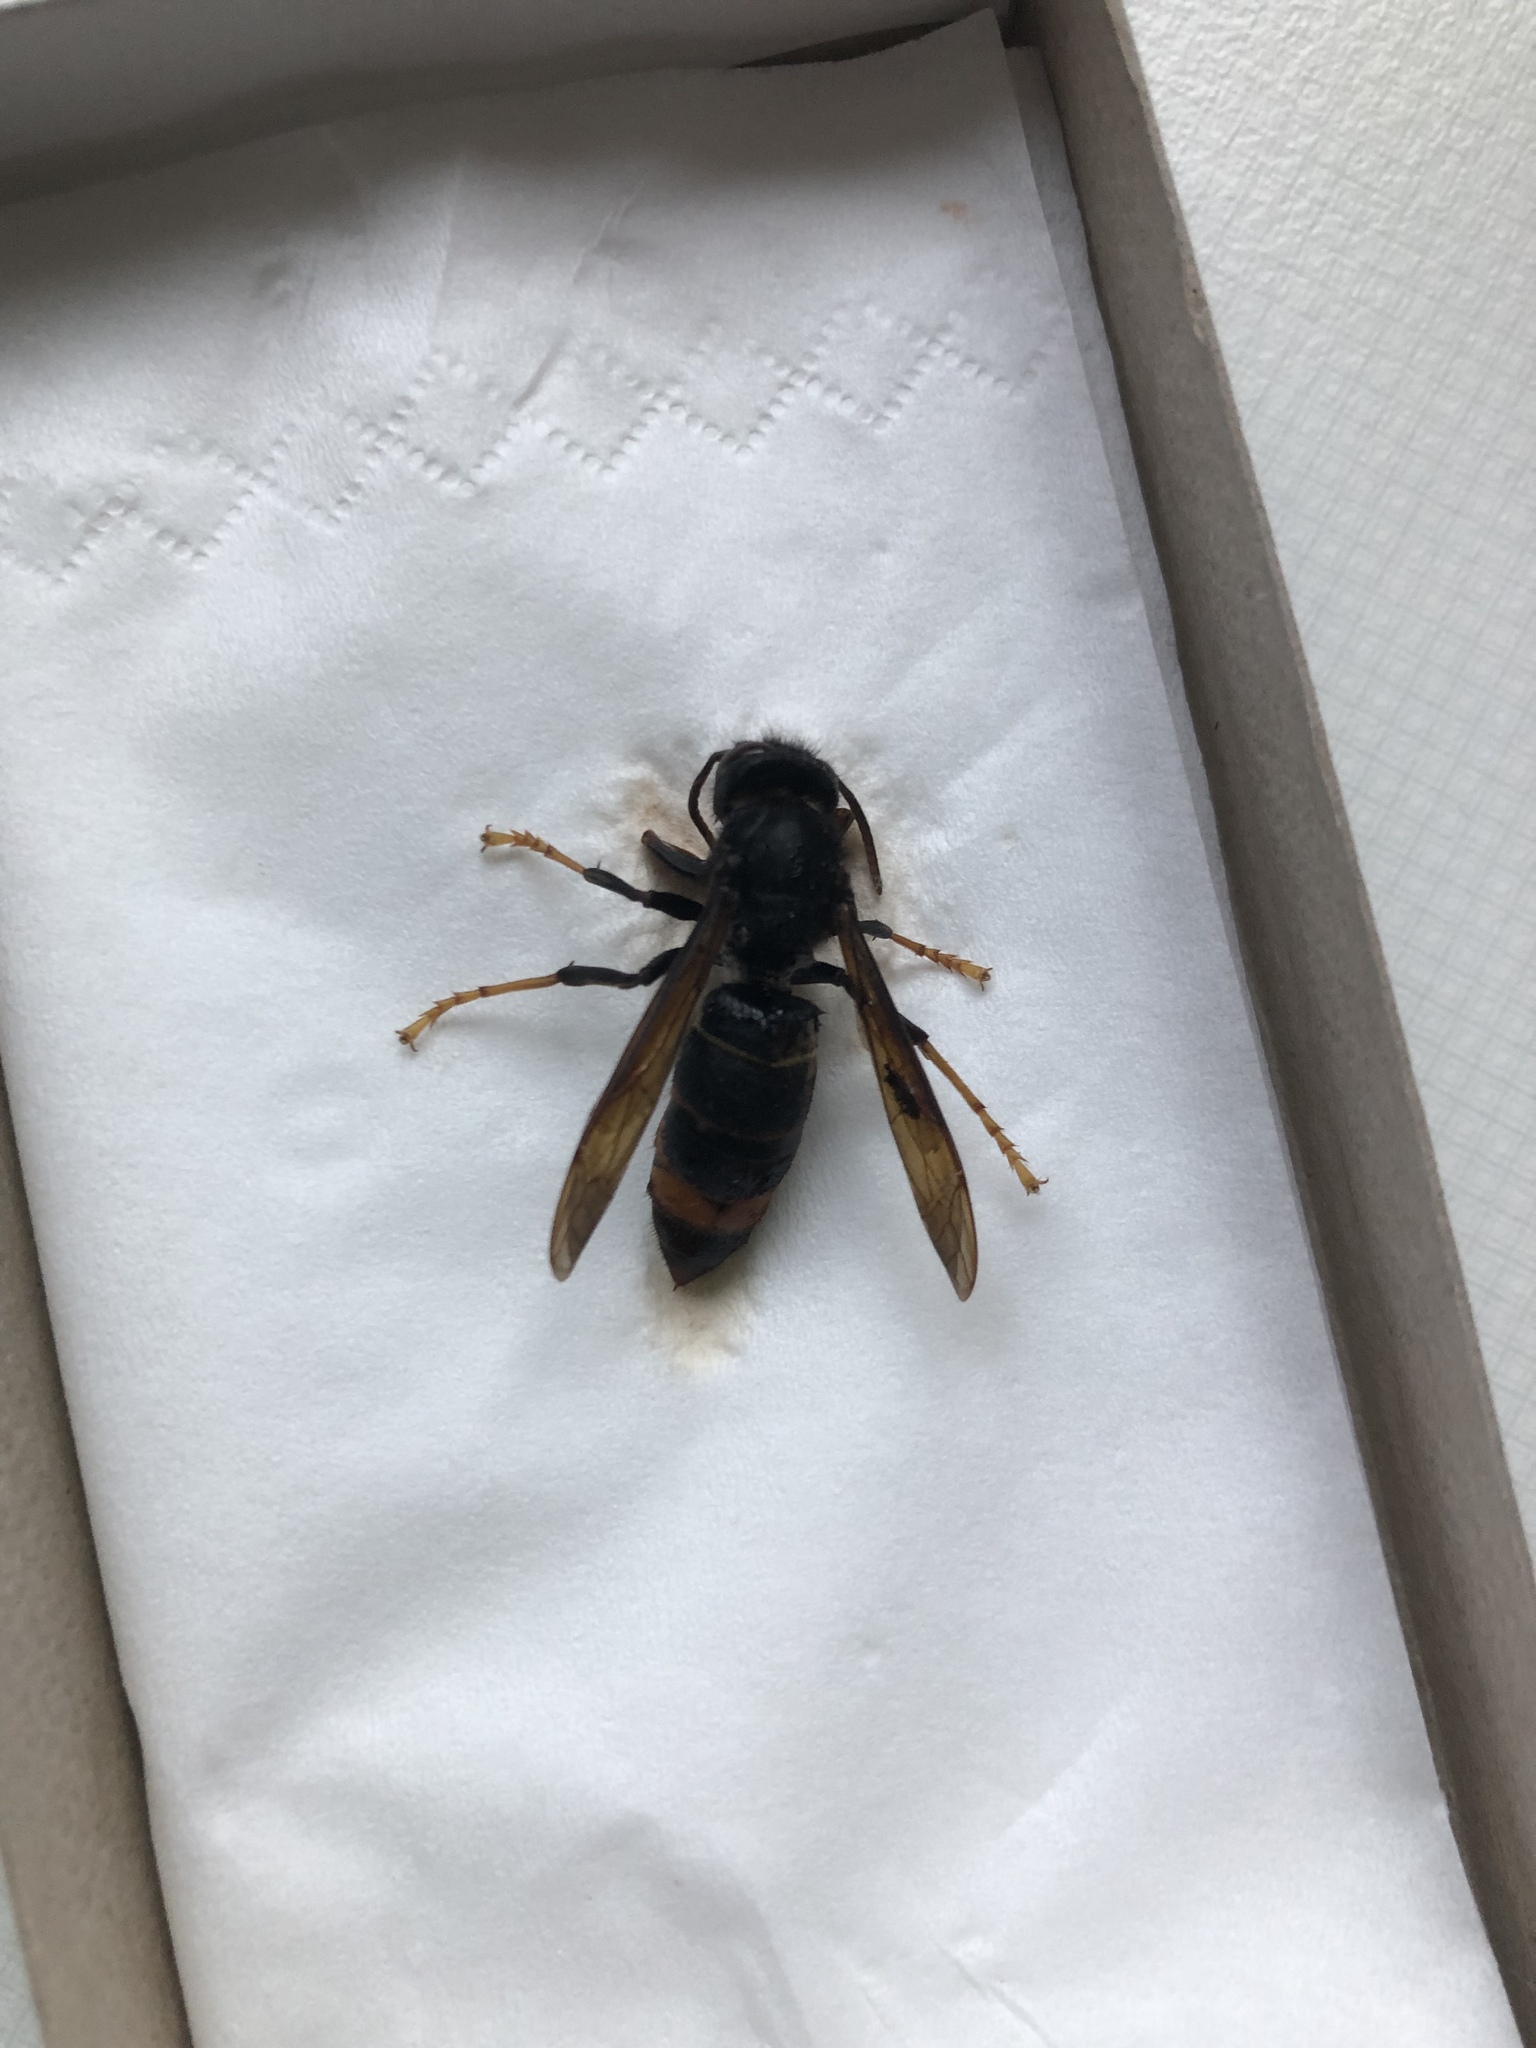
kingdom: Animalia
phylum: Arthropoda
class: Insecta
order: Hymenoptera
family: Vespidae
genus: Vespa
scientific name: Vespa velutina
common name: Asian hornet
